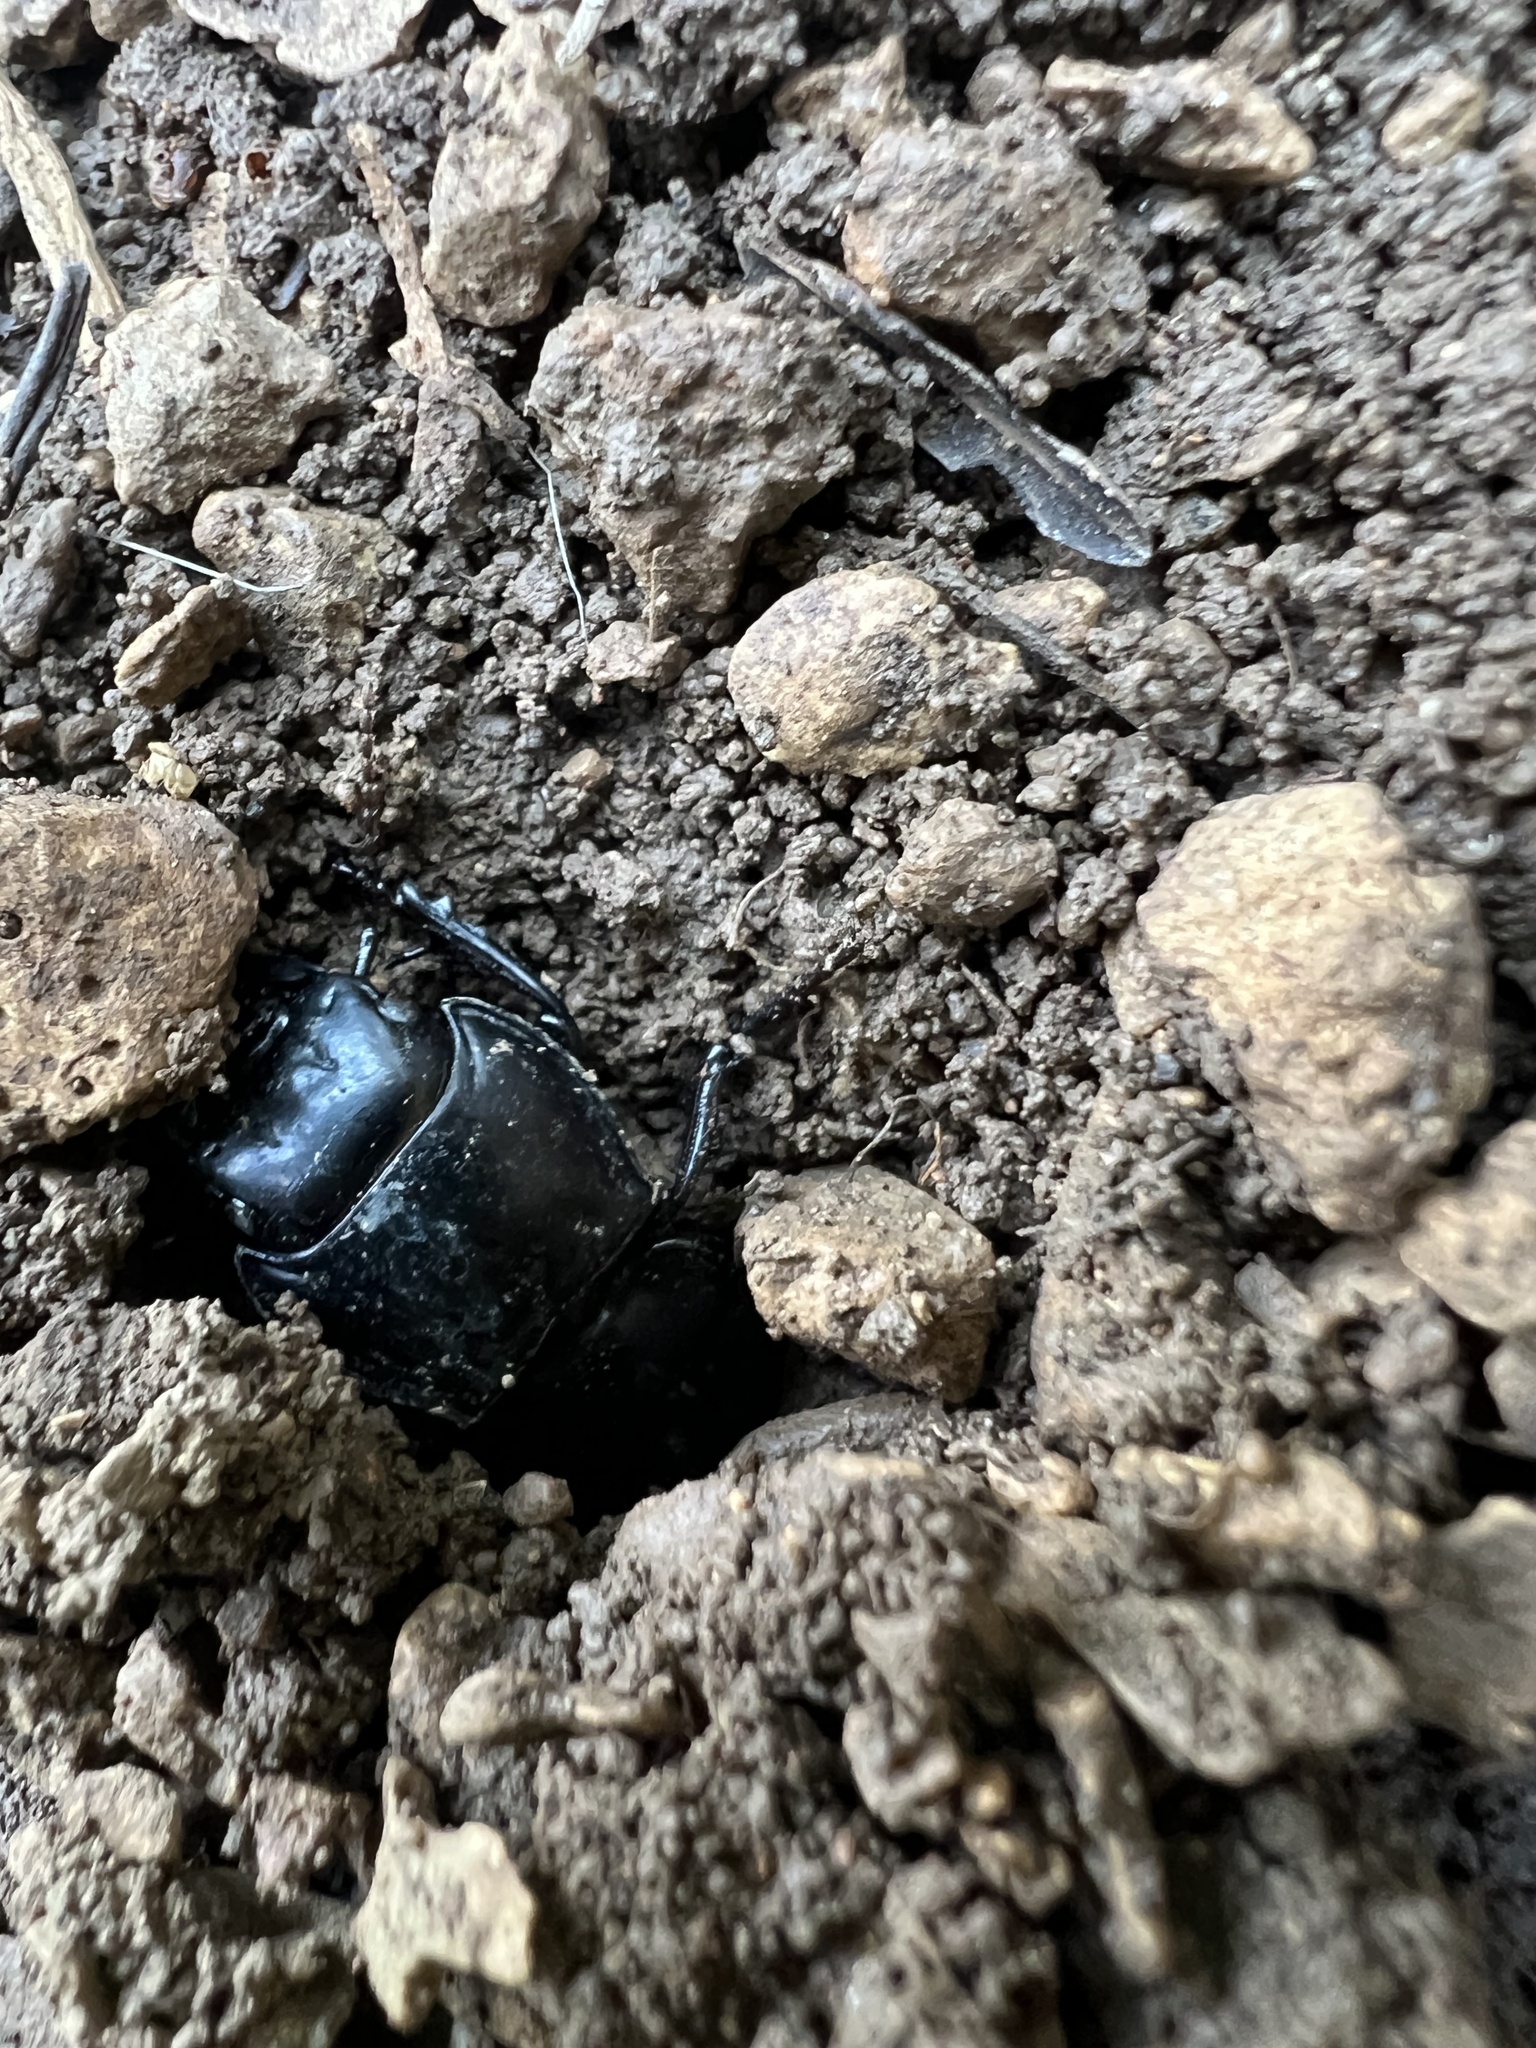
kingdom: Animalia
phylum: Arthropoda
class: Insecta
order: Coleoptera
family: Carabidae
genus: Pasimachus
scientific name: Pasimachus elongatus
